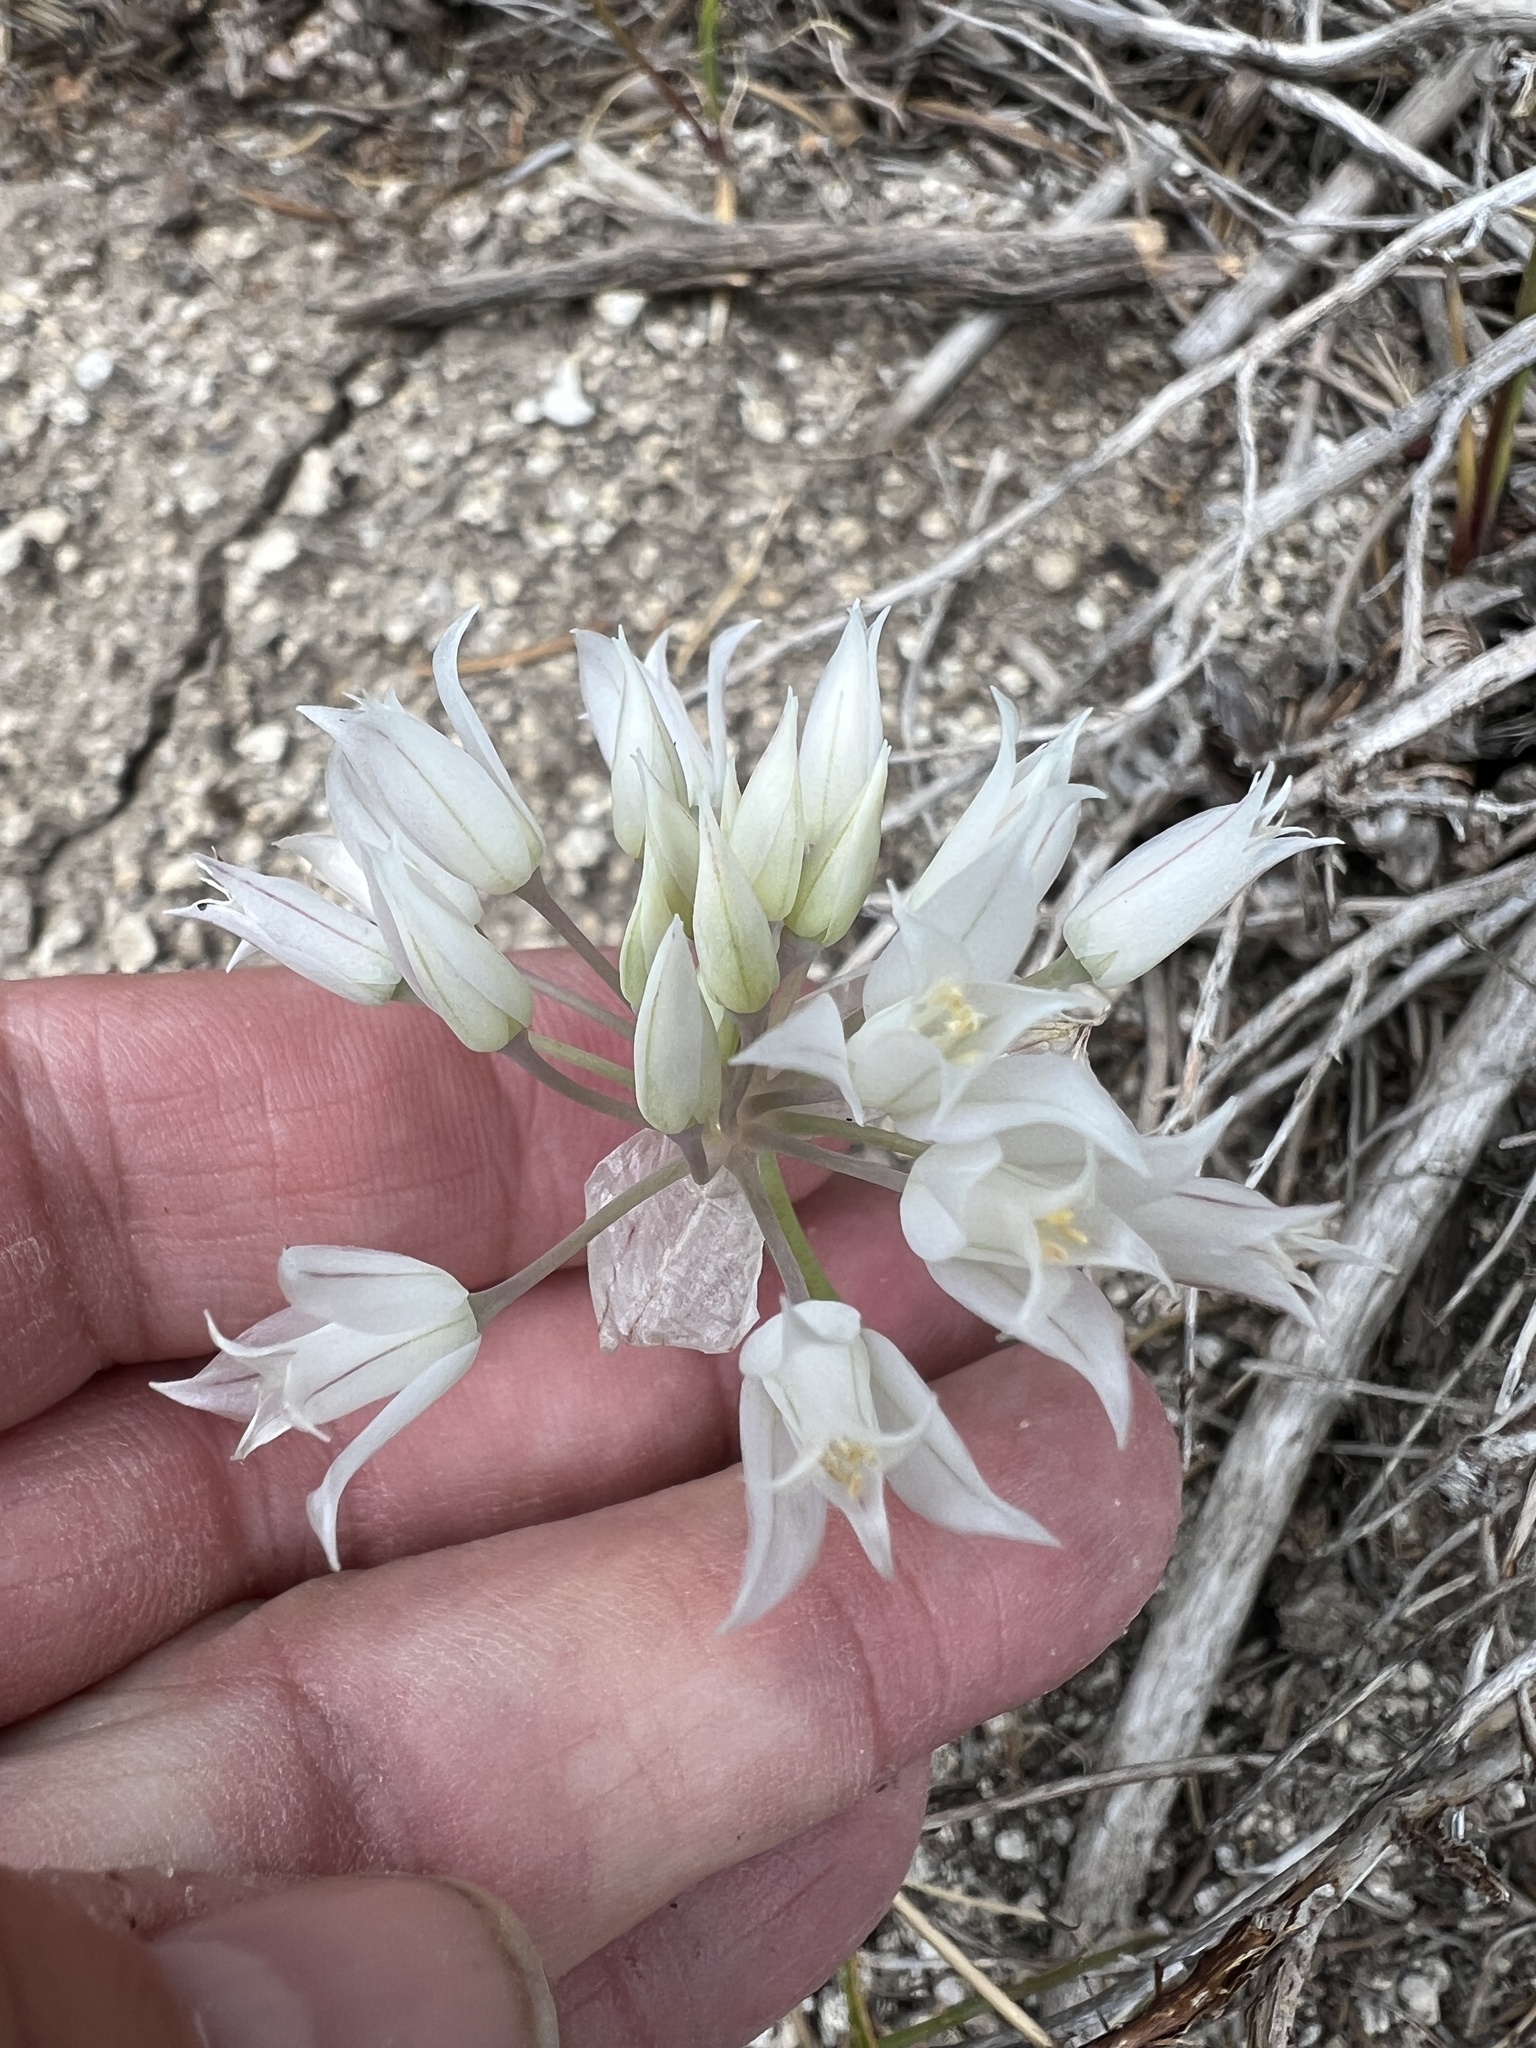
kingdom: Plantae
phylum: Tracheophyta
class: Liliopsida
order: Asparagales
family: Amaryllidaceae
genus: Allium
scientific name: Allium acuminatum
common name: Hooker's onion
